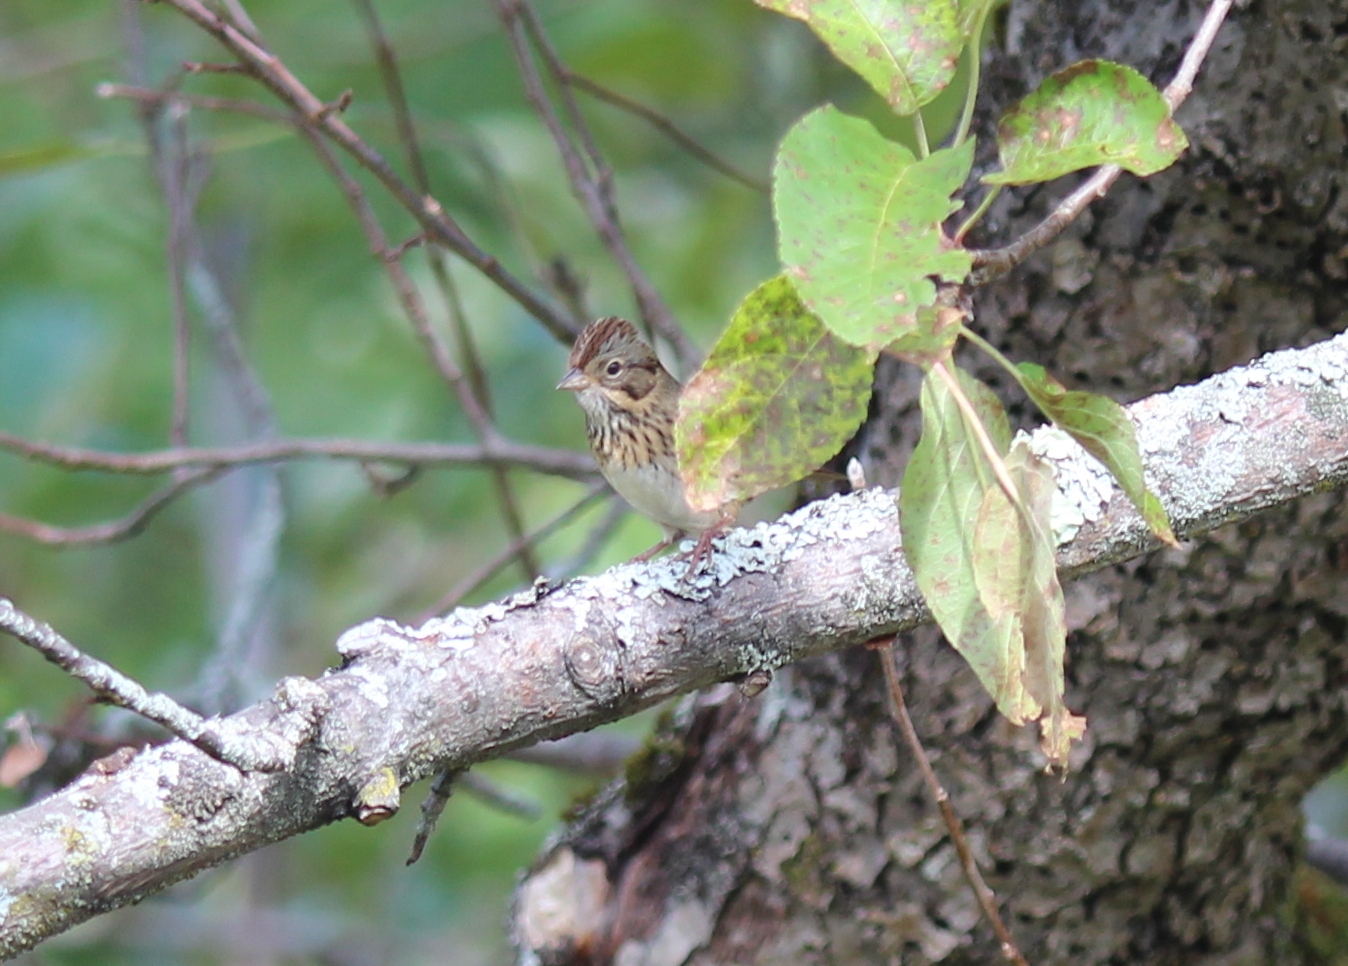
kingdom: Animalia
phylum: Chordata
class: Aves
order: Passeriformes
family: Passerellidae
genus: Melospiza
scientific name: Melospiza lincolnii
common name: Lincoln's sparrow
